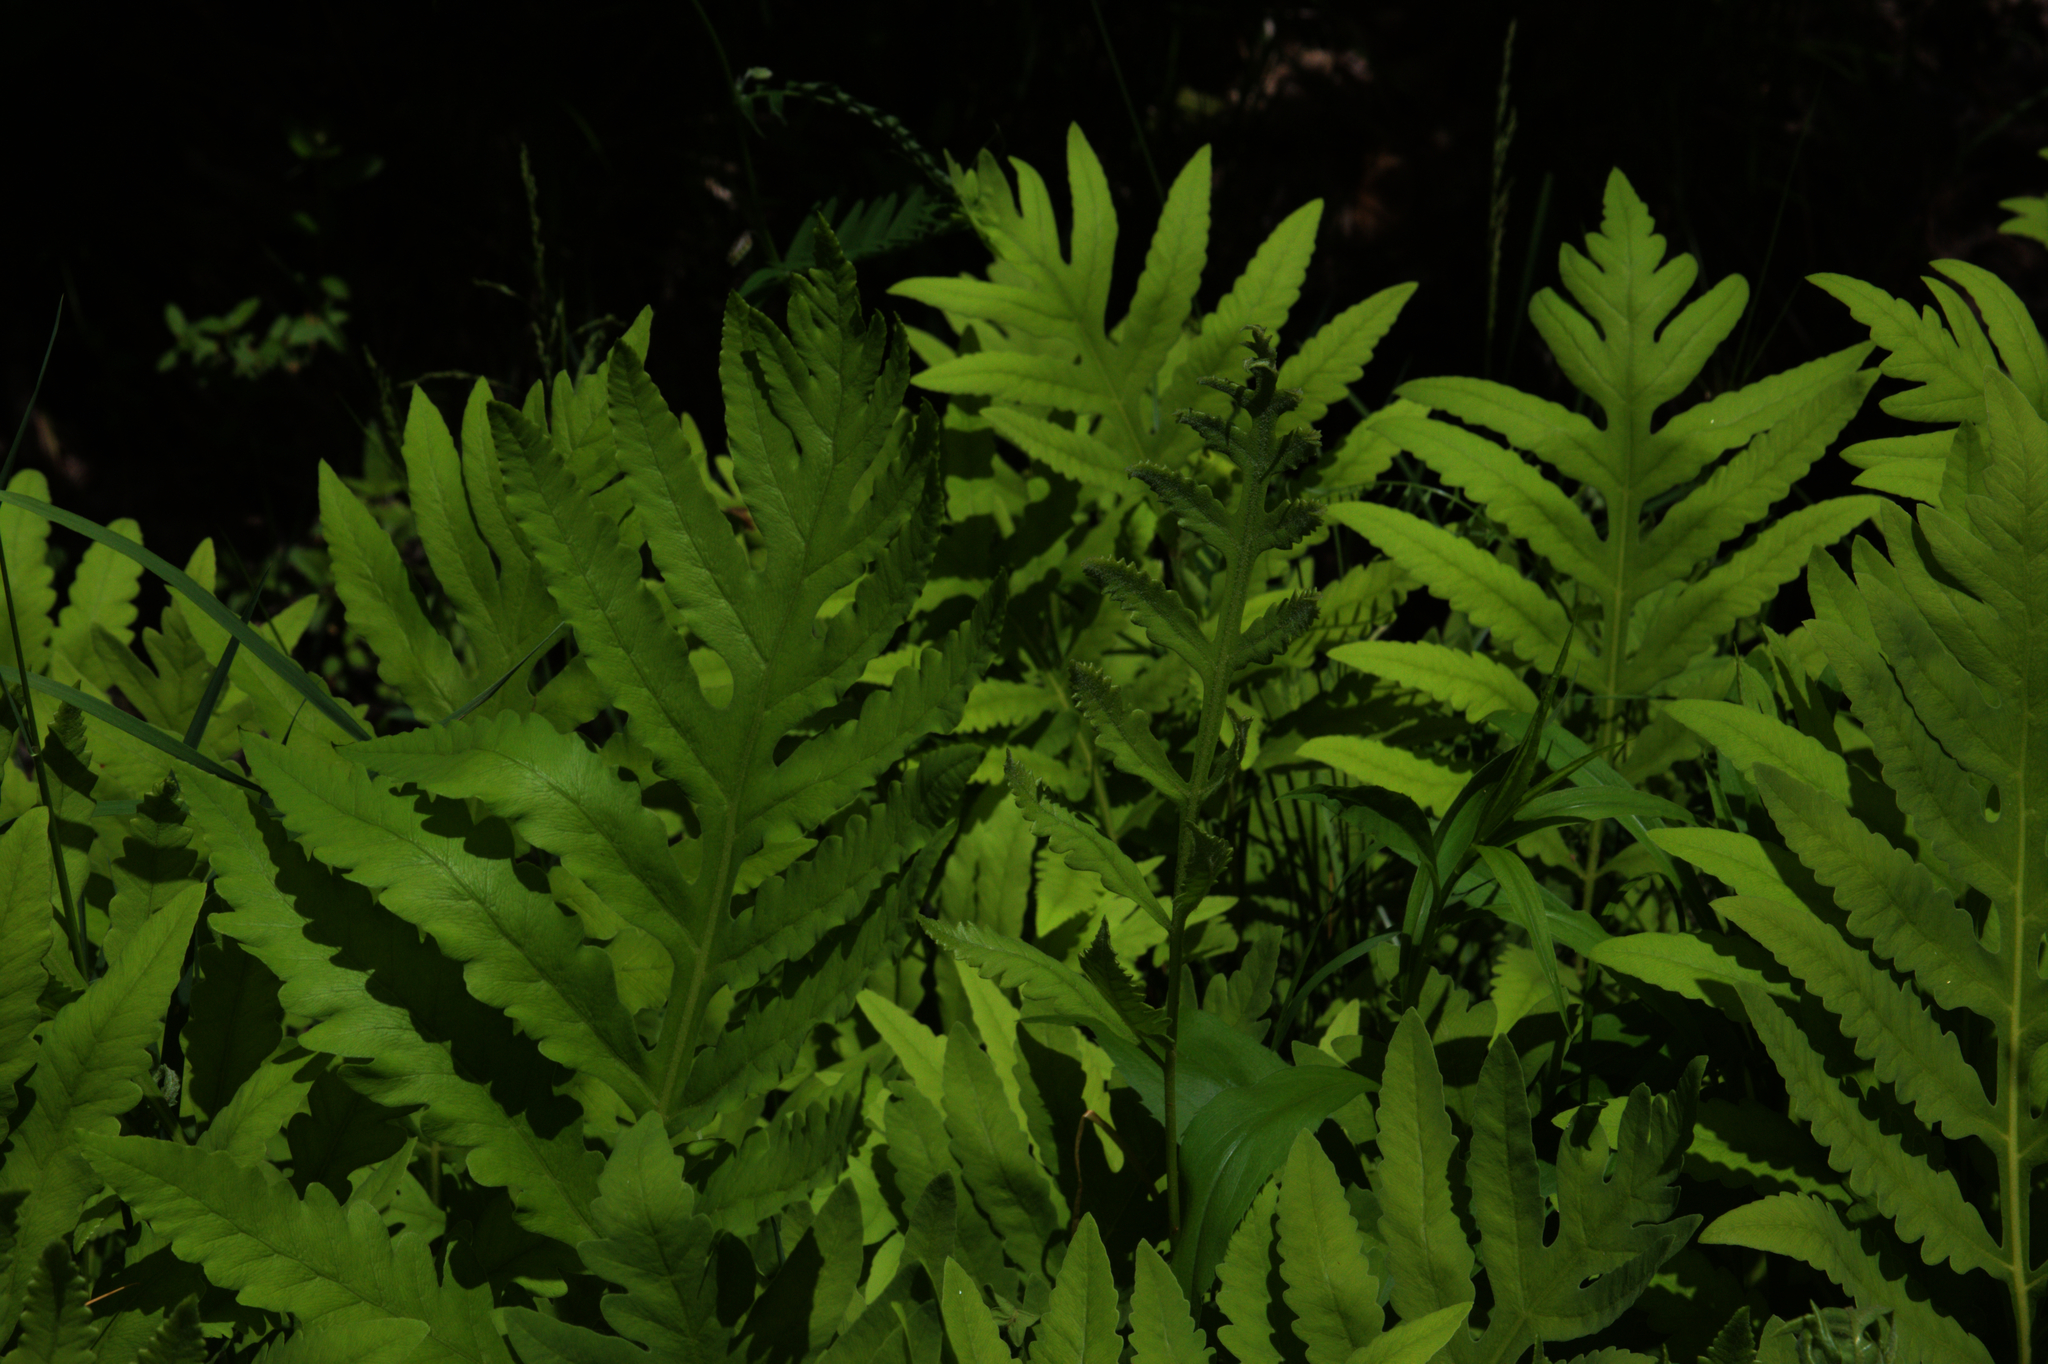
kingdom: Plantae
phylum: Tracheophyta
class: Polypodiopsida
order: Polypodiales
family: Onocleaceae
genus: Onoclea
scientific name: Onoclea sensibilis
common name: Sensitive fern
